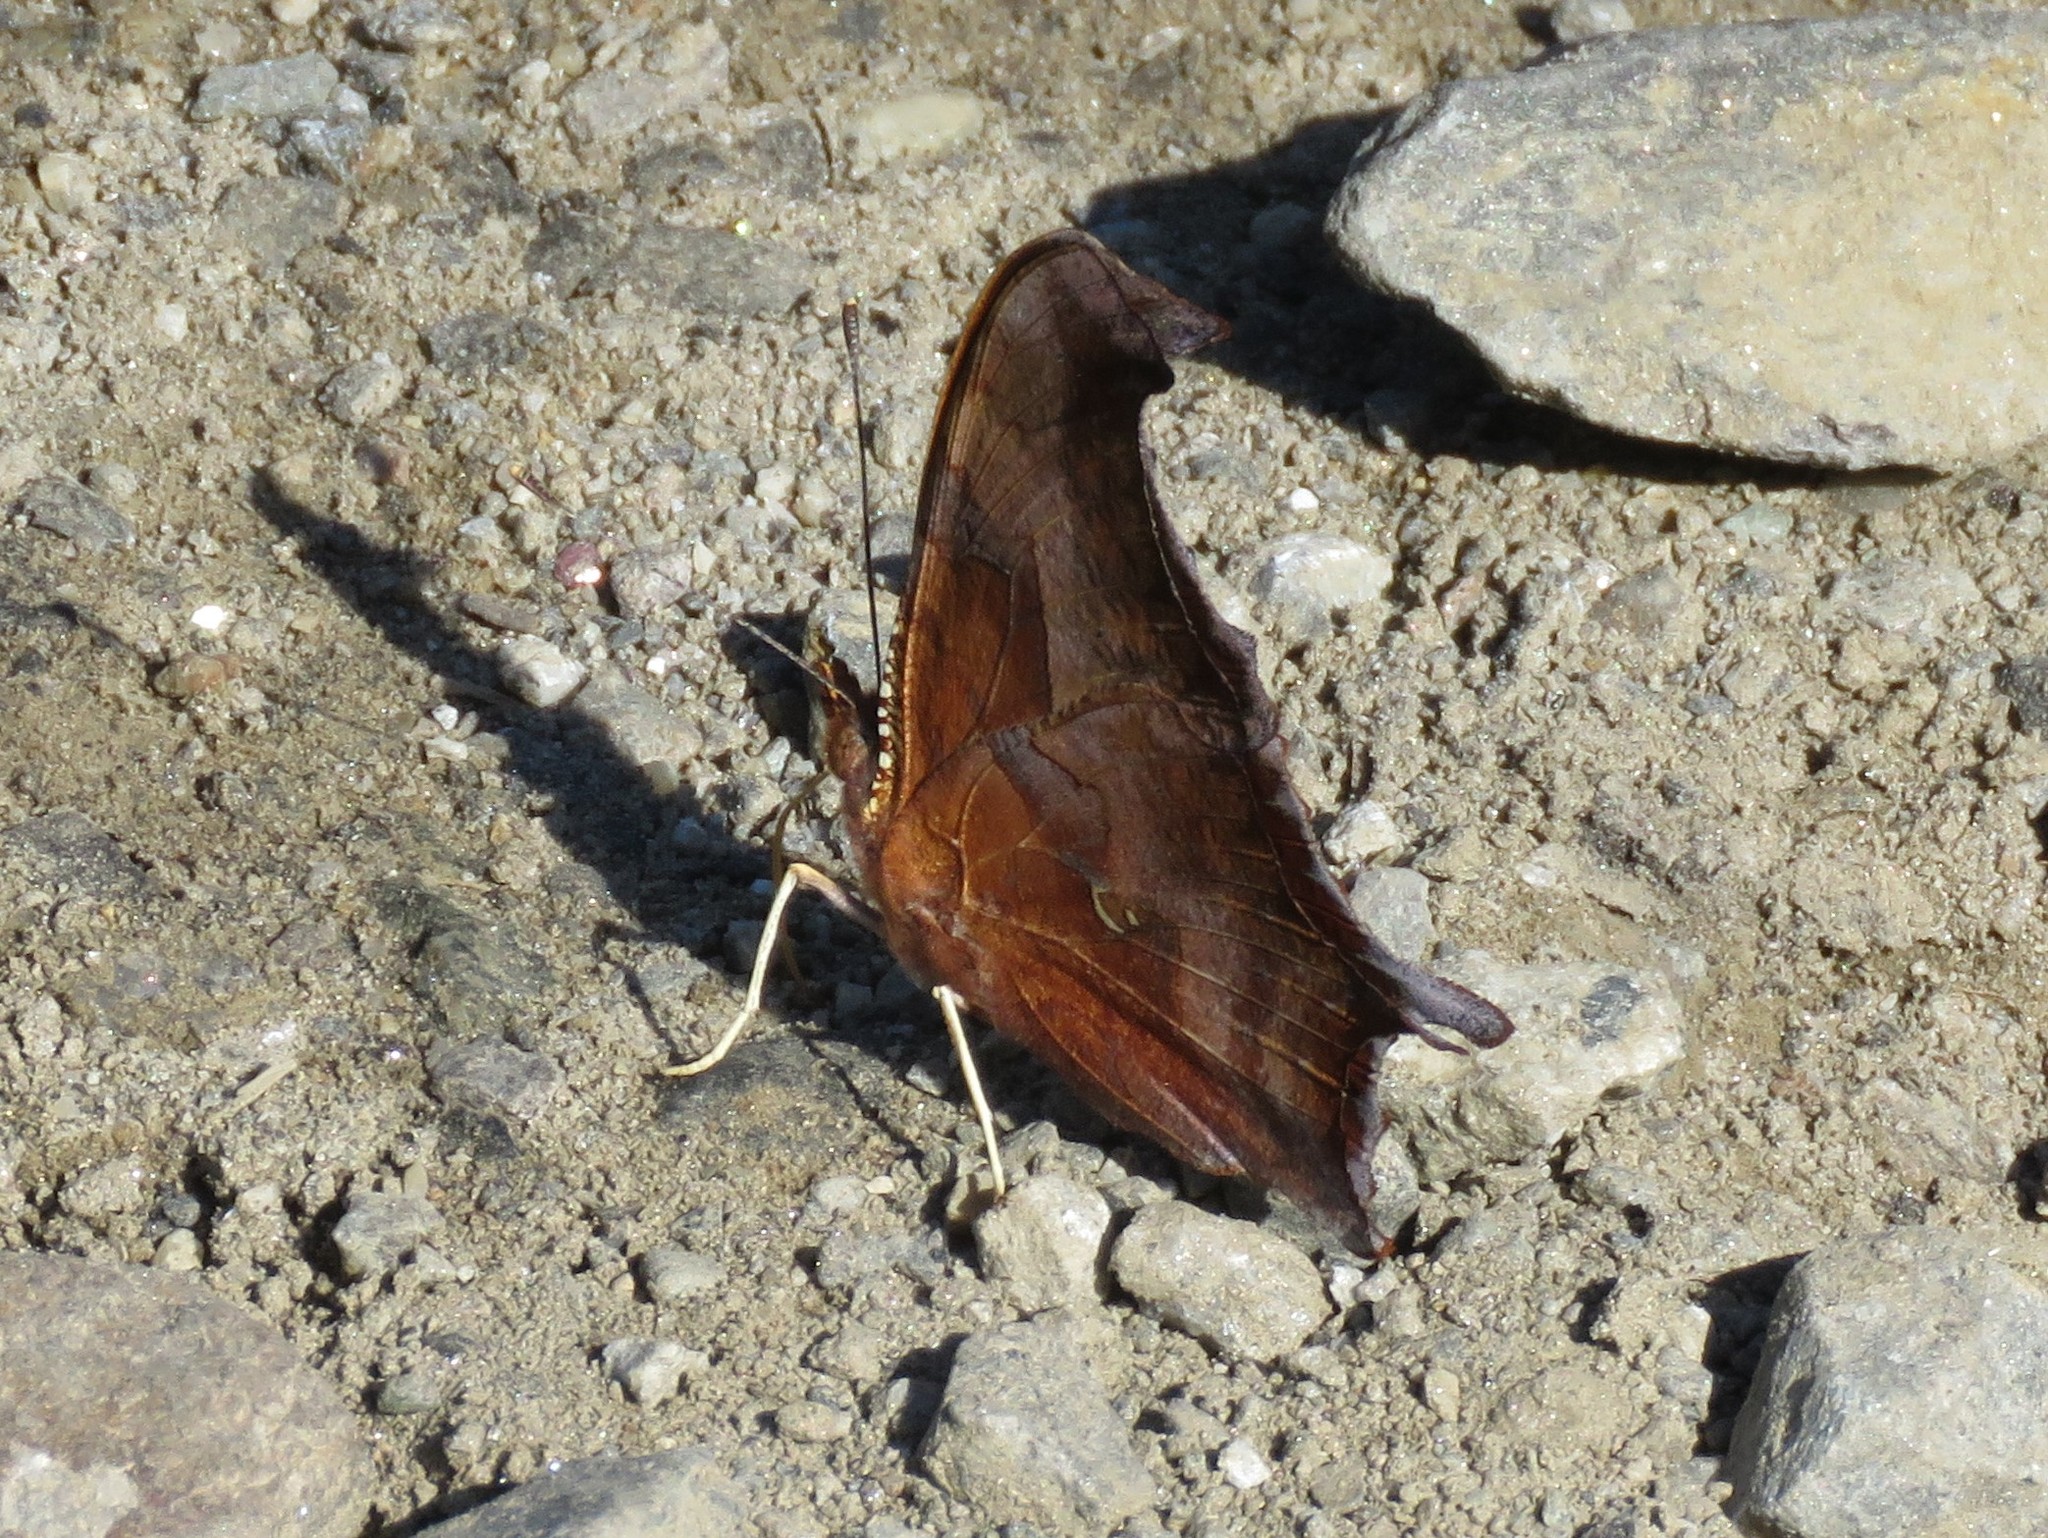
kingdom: Animalia
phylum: Arthropoda
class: Insecta
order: Lepidoptera
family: Nymphalidae
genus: Polygonia
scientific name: Polygonia interrogationis
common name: Question mark
